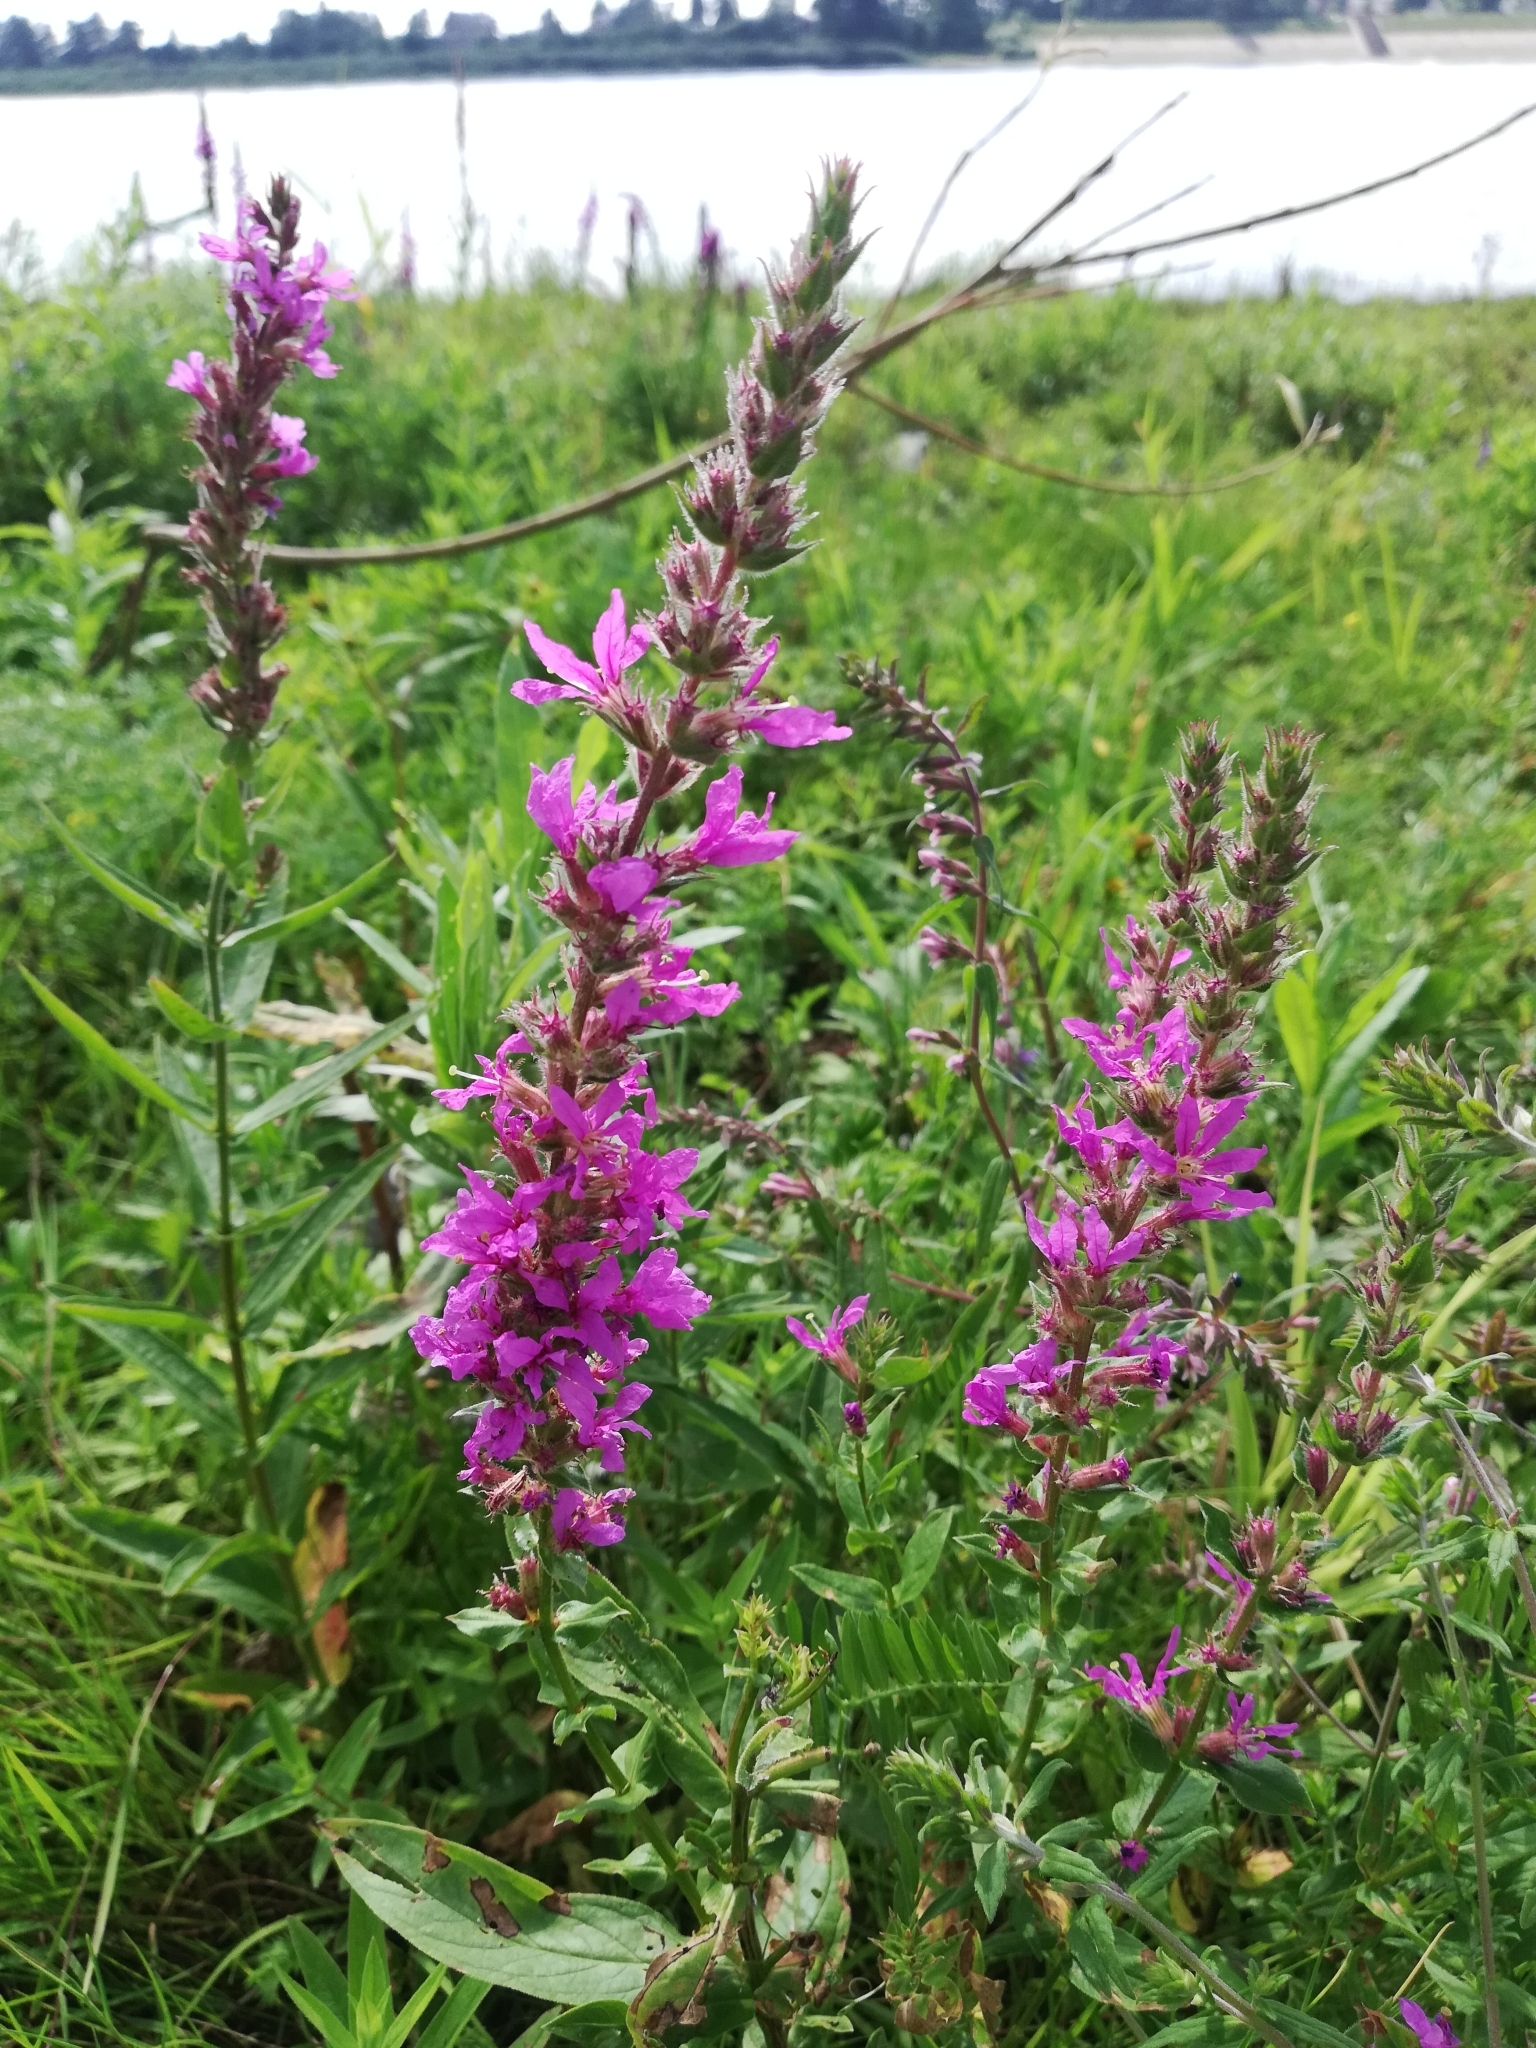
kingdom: Plantae
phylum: Tracheophyta
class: Magnoliopsida
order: Myrtales
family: Lythraceae
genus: Lythrum
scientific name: Lythrum salicaria
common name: Purple loosestrife
